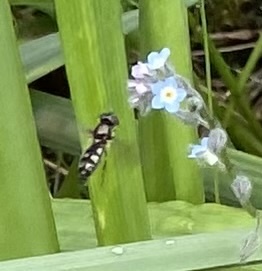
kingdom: Animalia
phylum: Arthropoda
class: Insecta
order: Diptera
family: Syrphidae
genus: Platycheirus
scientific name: Platycheirus
